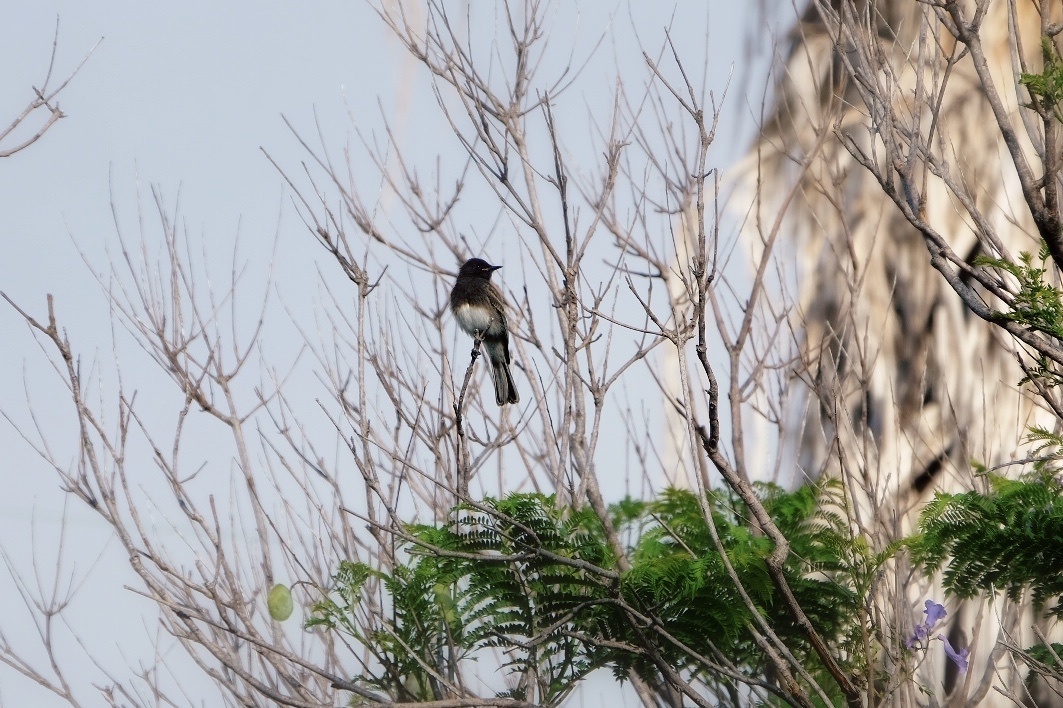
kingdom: Animalia
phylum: Chordata
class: Aves
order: Passeriformes
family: Tyrannidae
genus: Sayornis
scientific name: Sayornis nigricans
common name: Black phoebe
